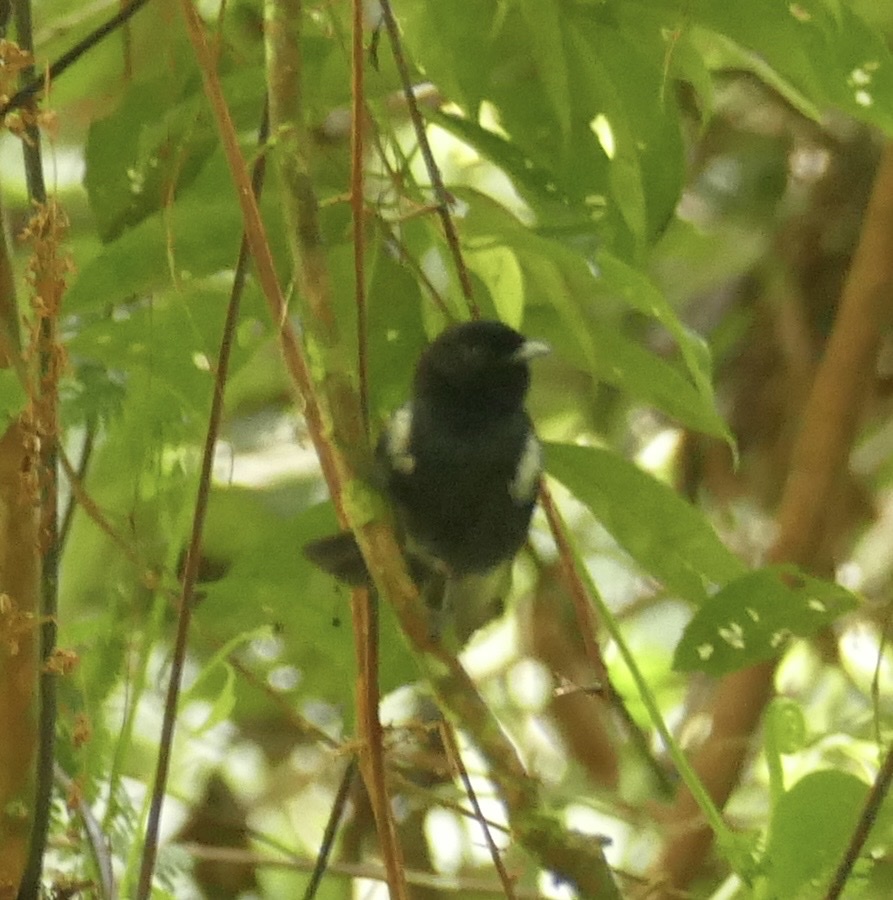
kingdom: Animalia
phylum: Chordata
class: Aves
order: Passeriformes
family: Monarchidae
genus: Symposiachrus
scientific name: Symposiachrus axillaris
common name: Black monarch
